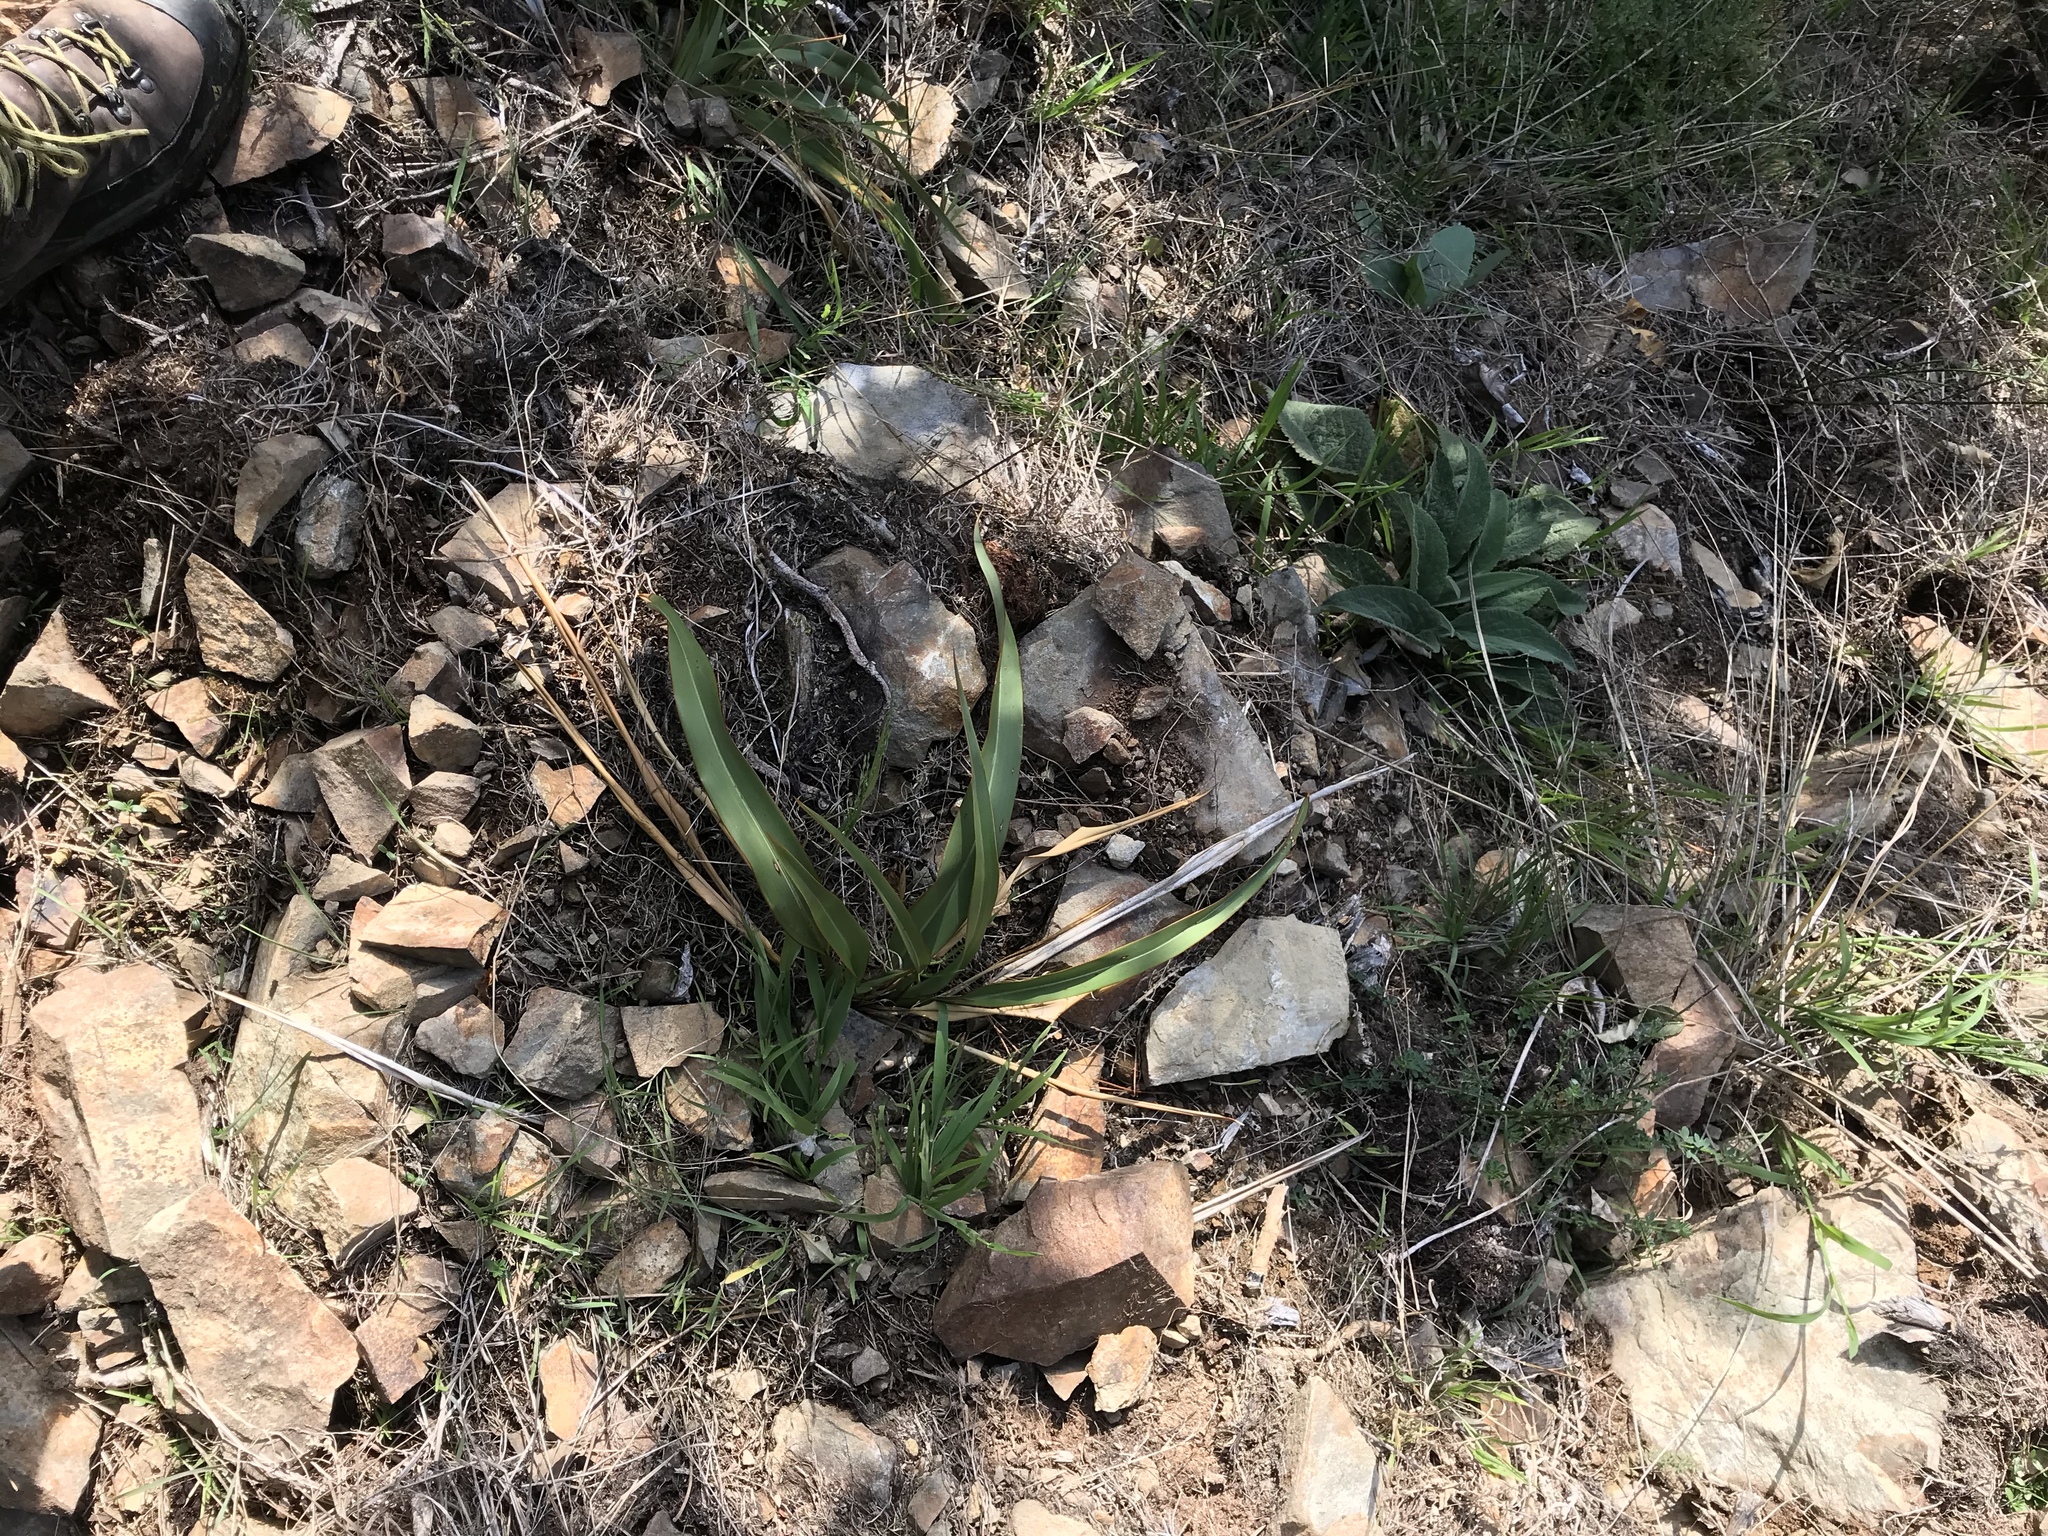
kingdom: Plantae
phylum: Tracheophyta
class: Liliopsida
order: Asparagales
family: Asphodelaceae
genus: Phormium
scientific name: Phormium colensoi
